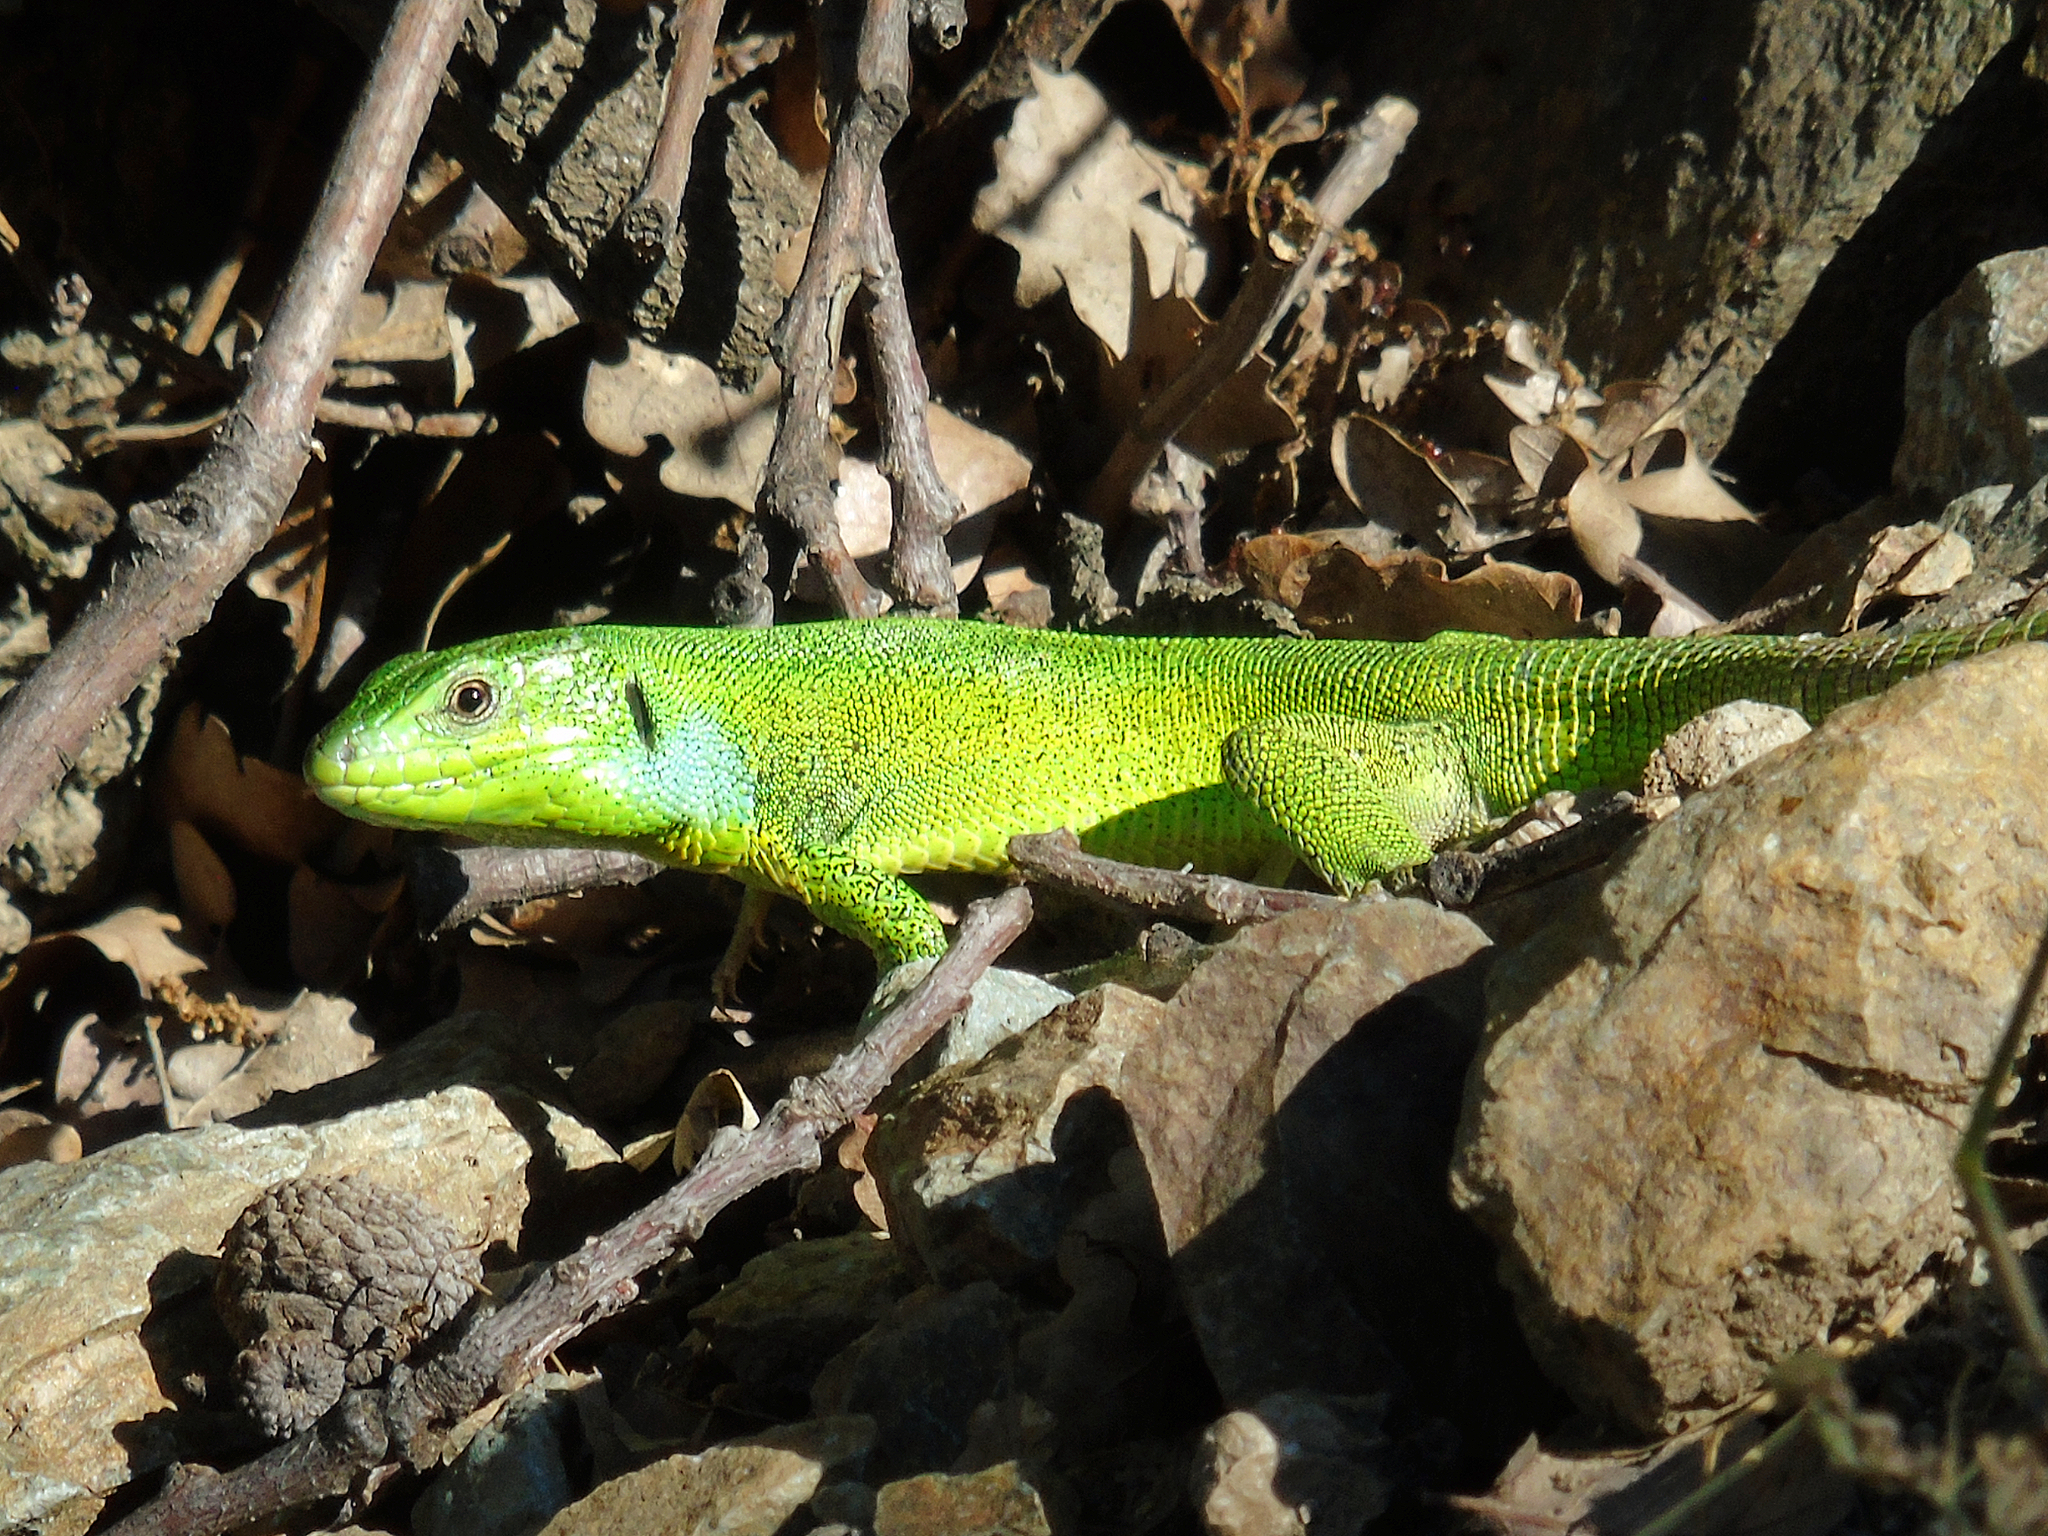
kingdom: Animalia
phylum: Chordata
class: Squamata
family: Lacertidae
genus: Lacerta
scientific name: Lacerta media
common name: Medium lizard
